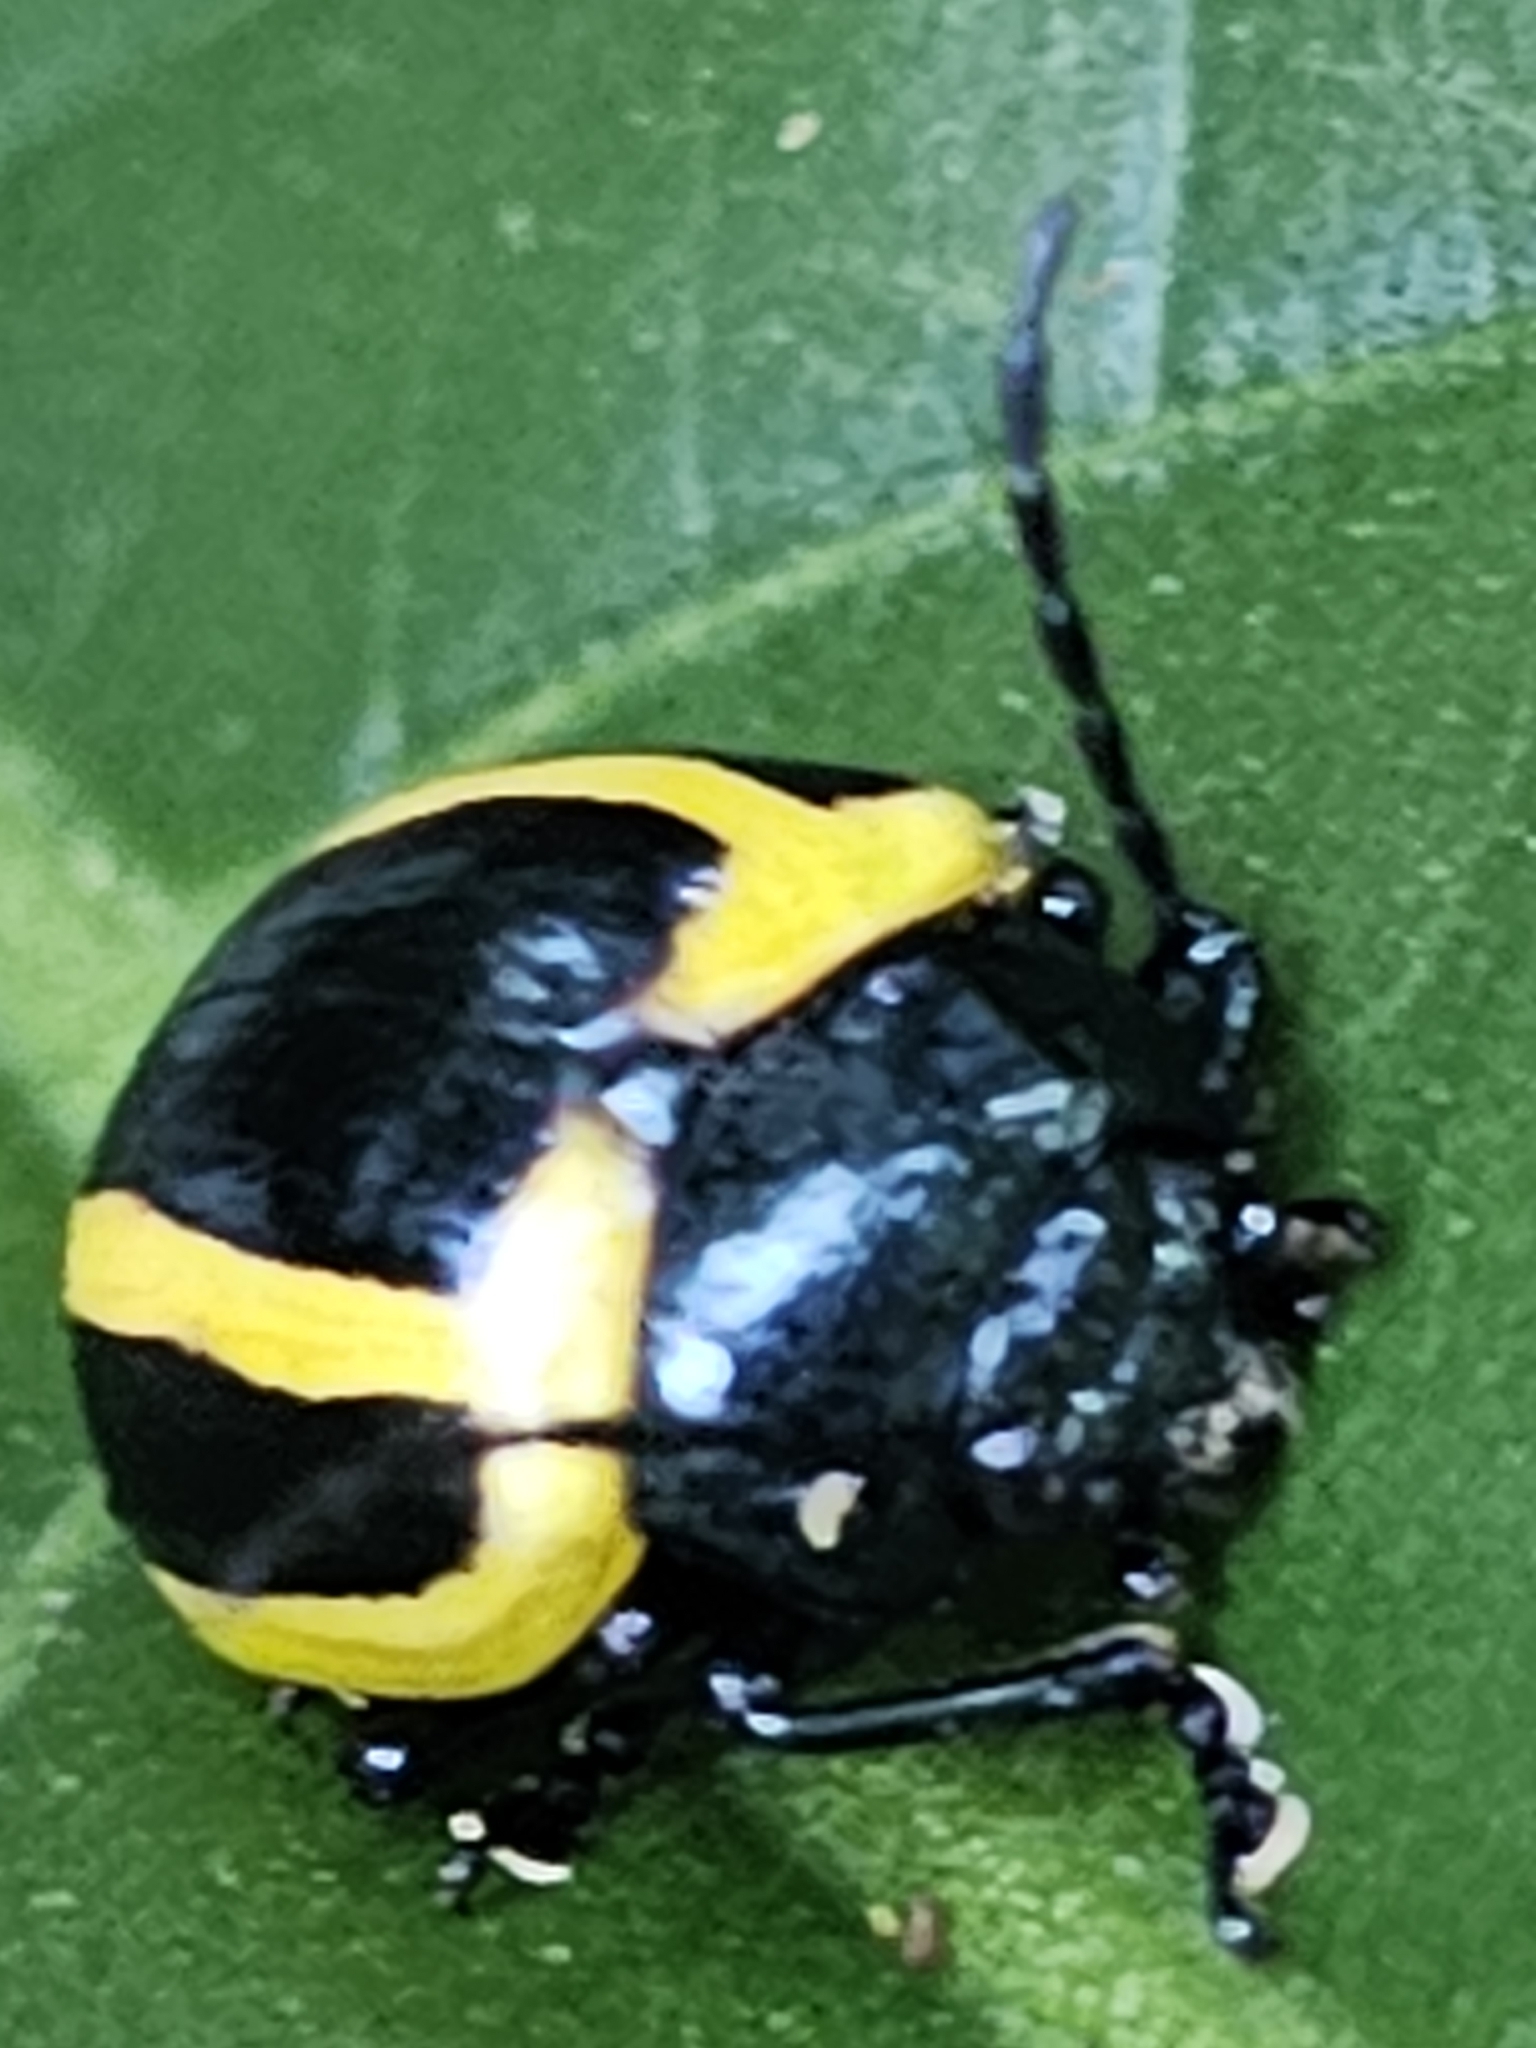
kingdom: Animalia
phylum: Arthropoda
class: Insecta
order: Coleoptera
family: Chrysomelidae
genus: Proseicela
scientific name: Proseicela vittata
